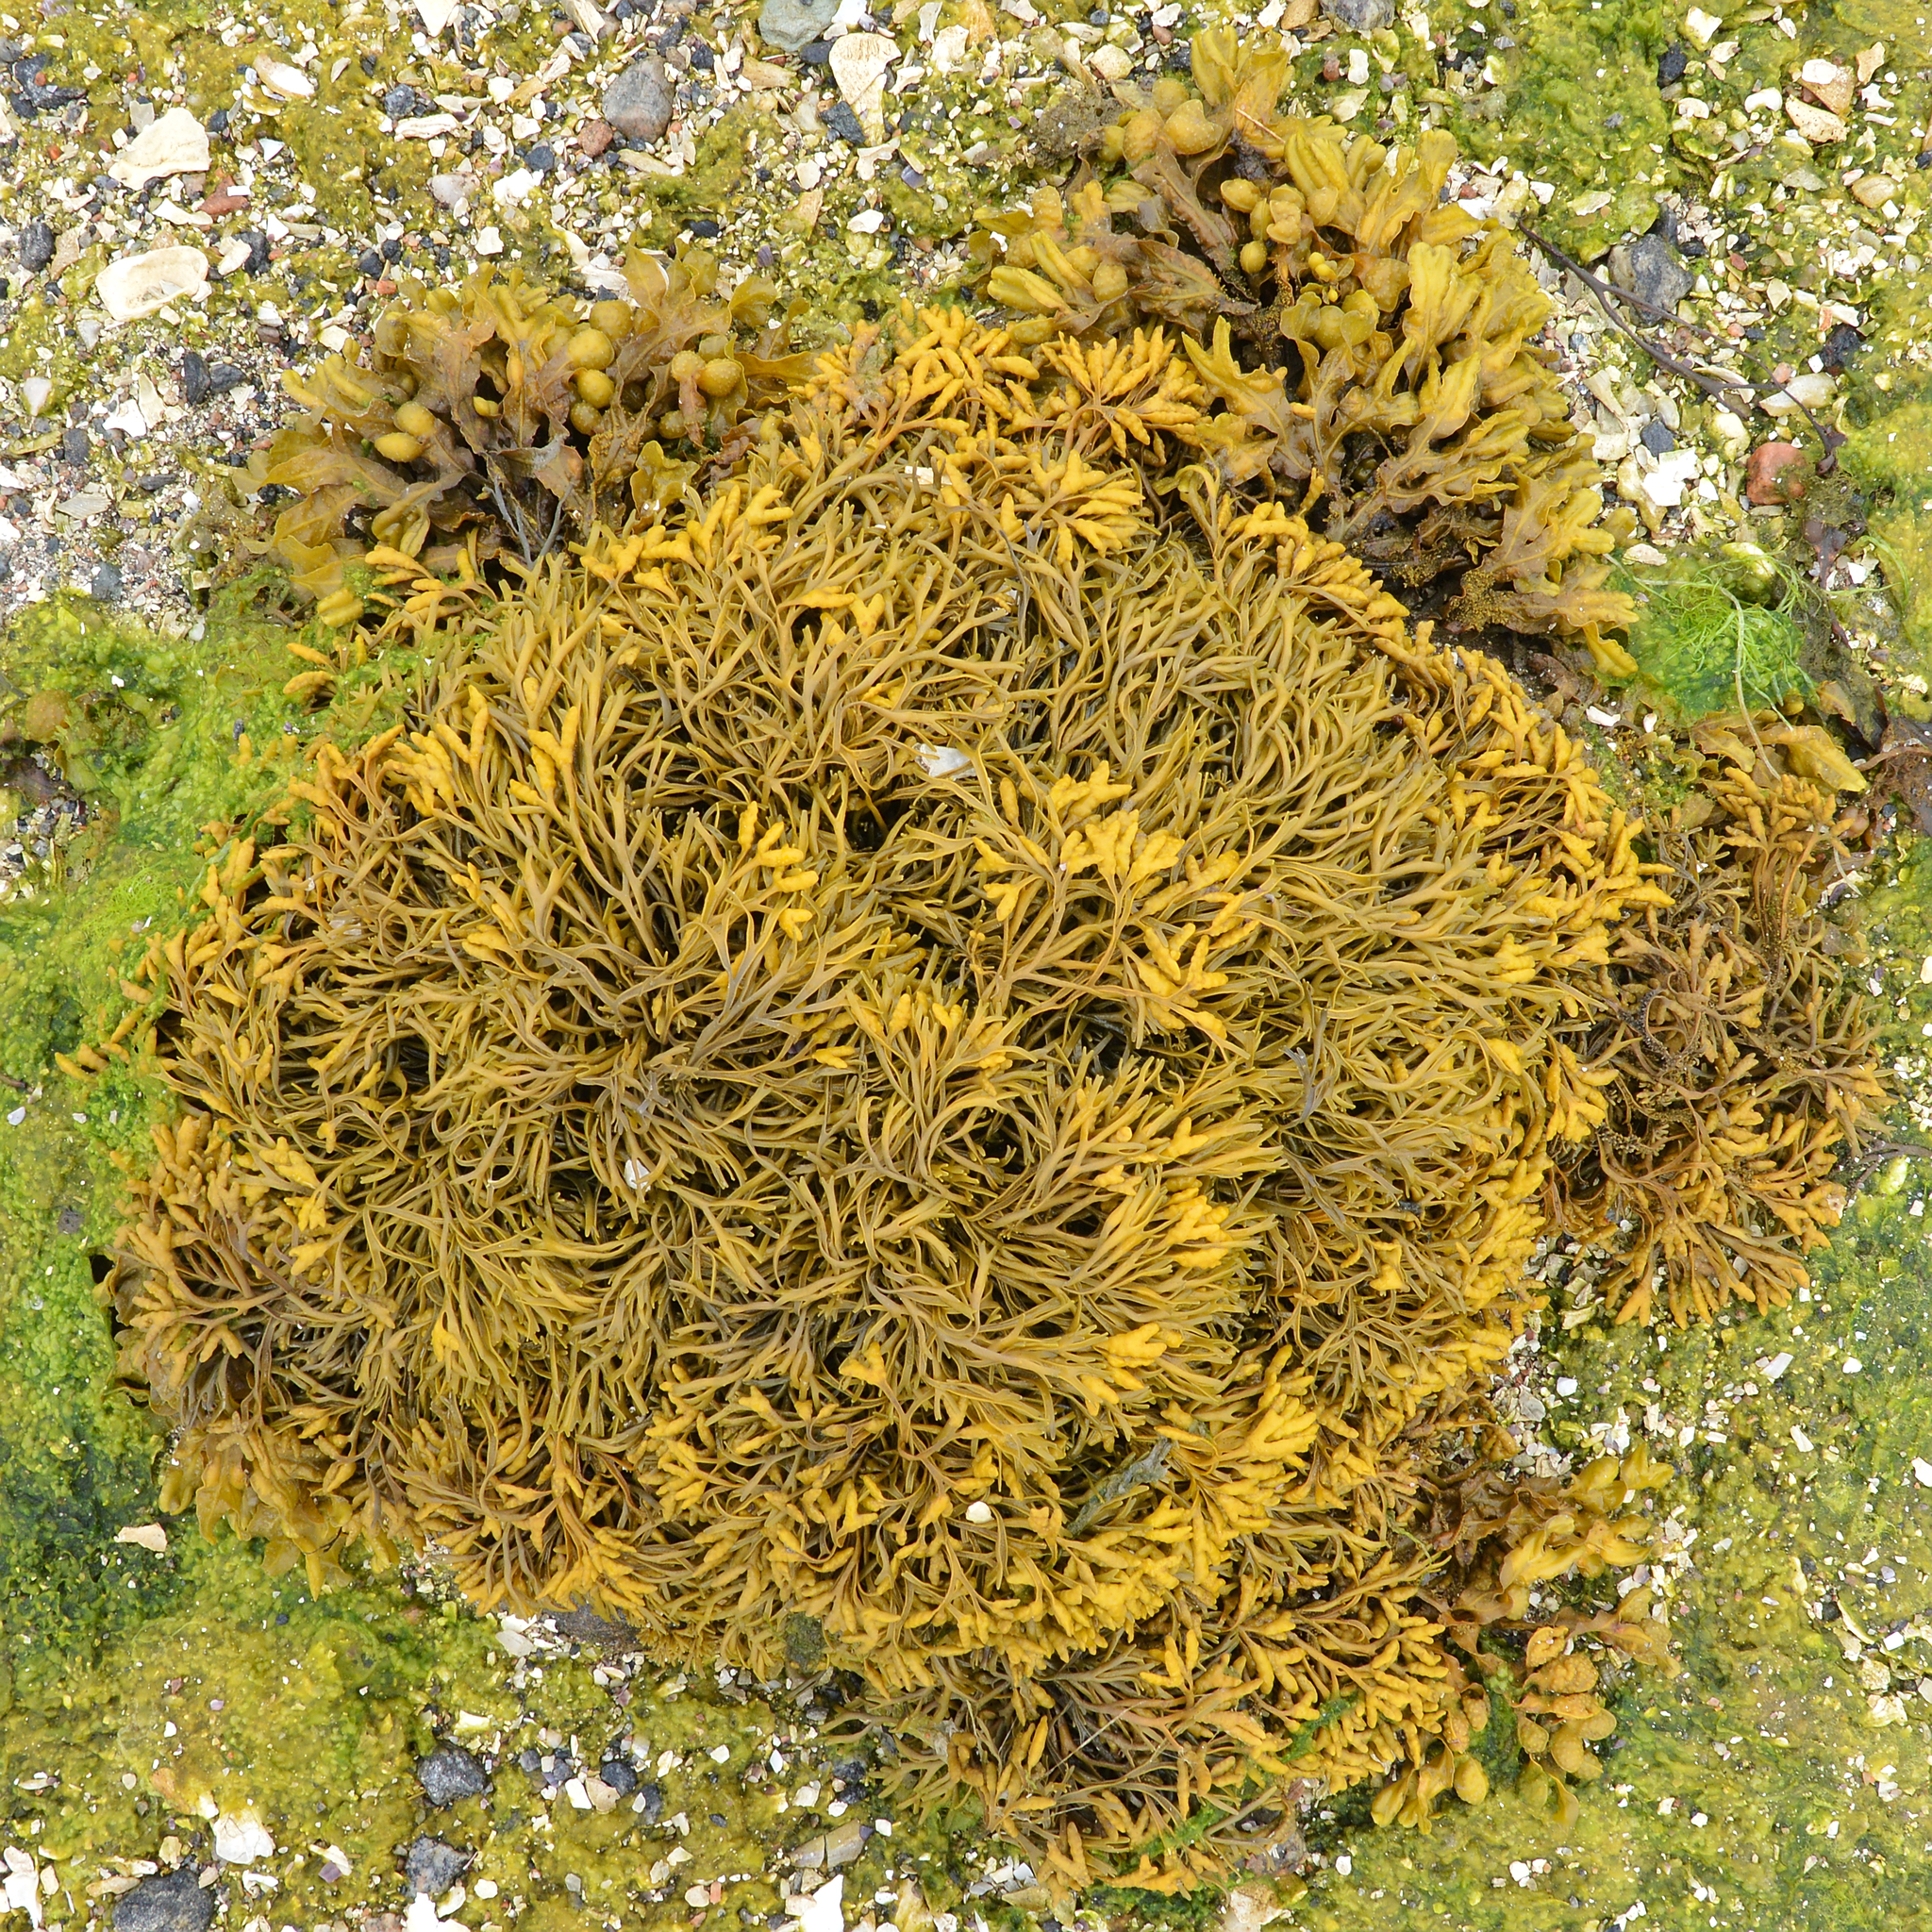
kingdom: Chromista
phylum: Ochrophyta
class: Phaeophyceae
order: Fucales
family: Fucaceae
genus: Pelvetia
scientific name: Pelvetia canaliculata
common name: Channelled wrack
